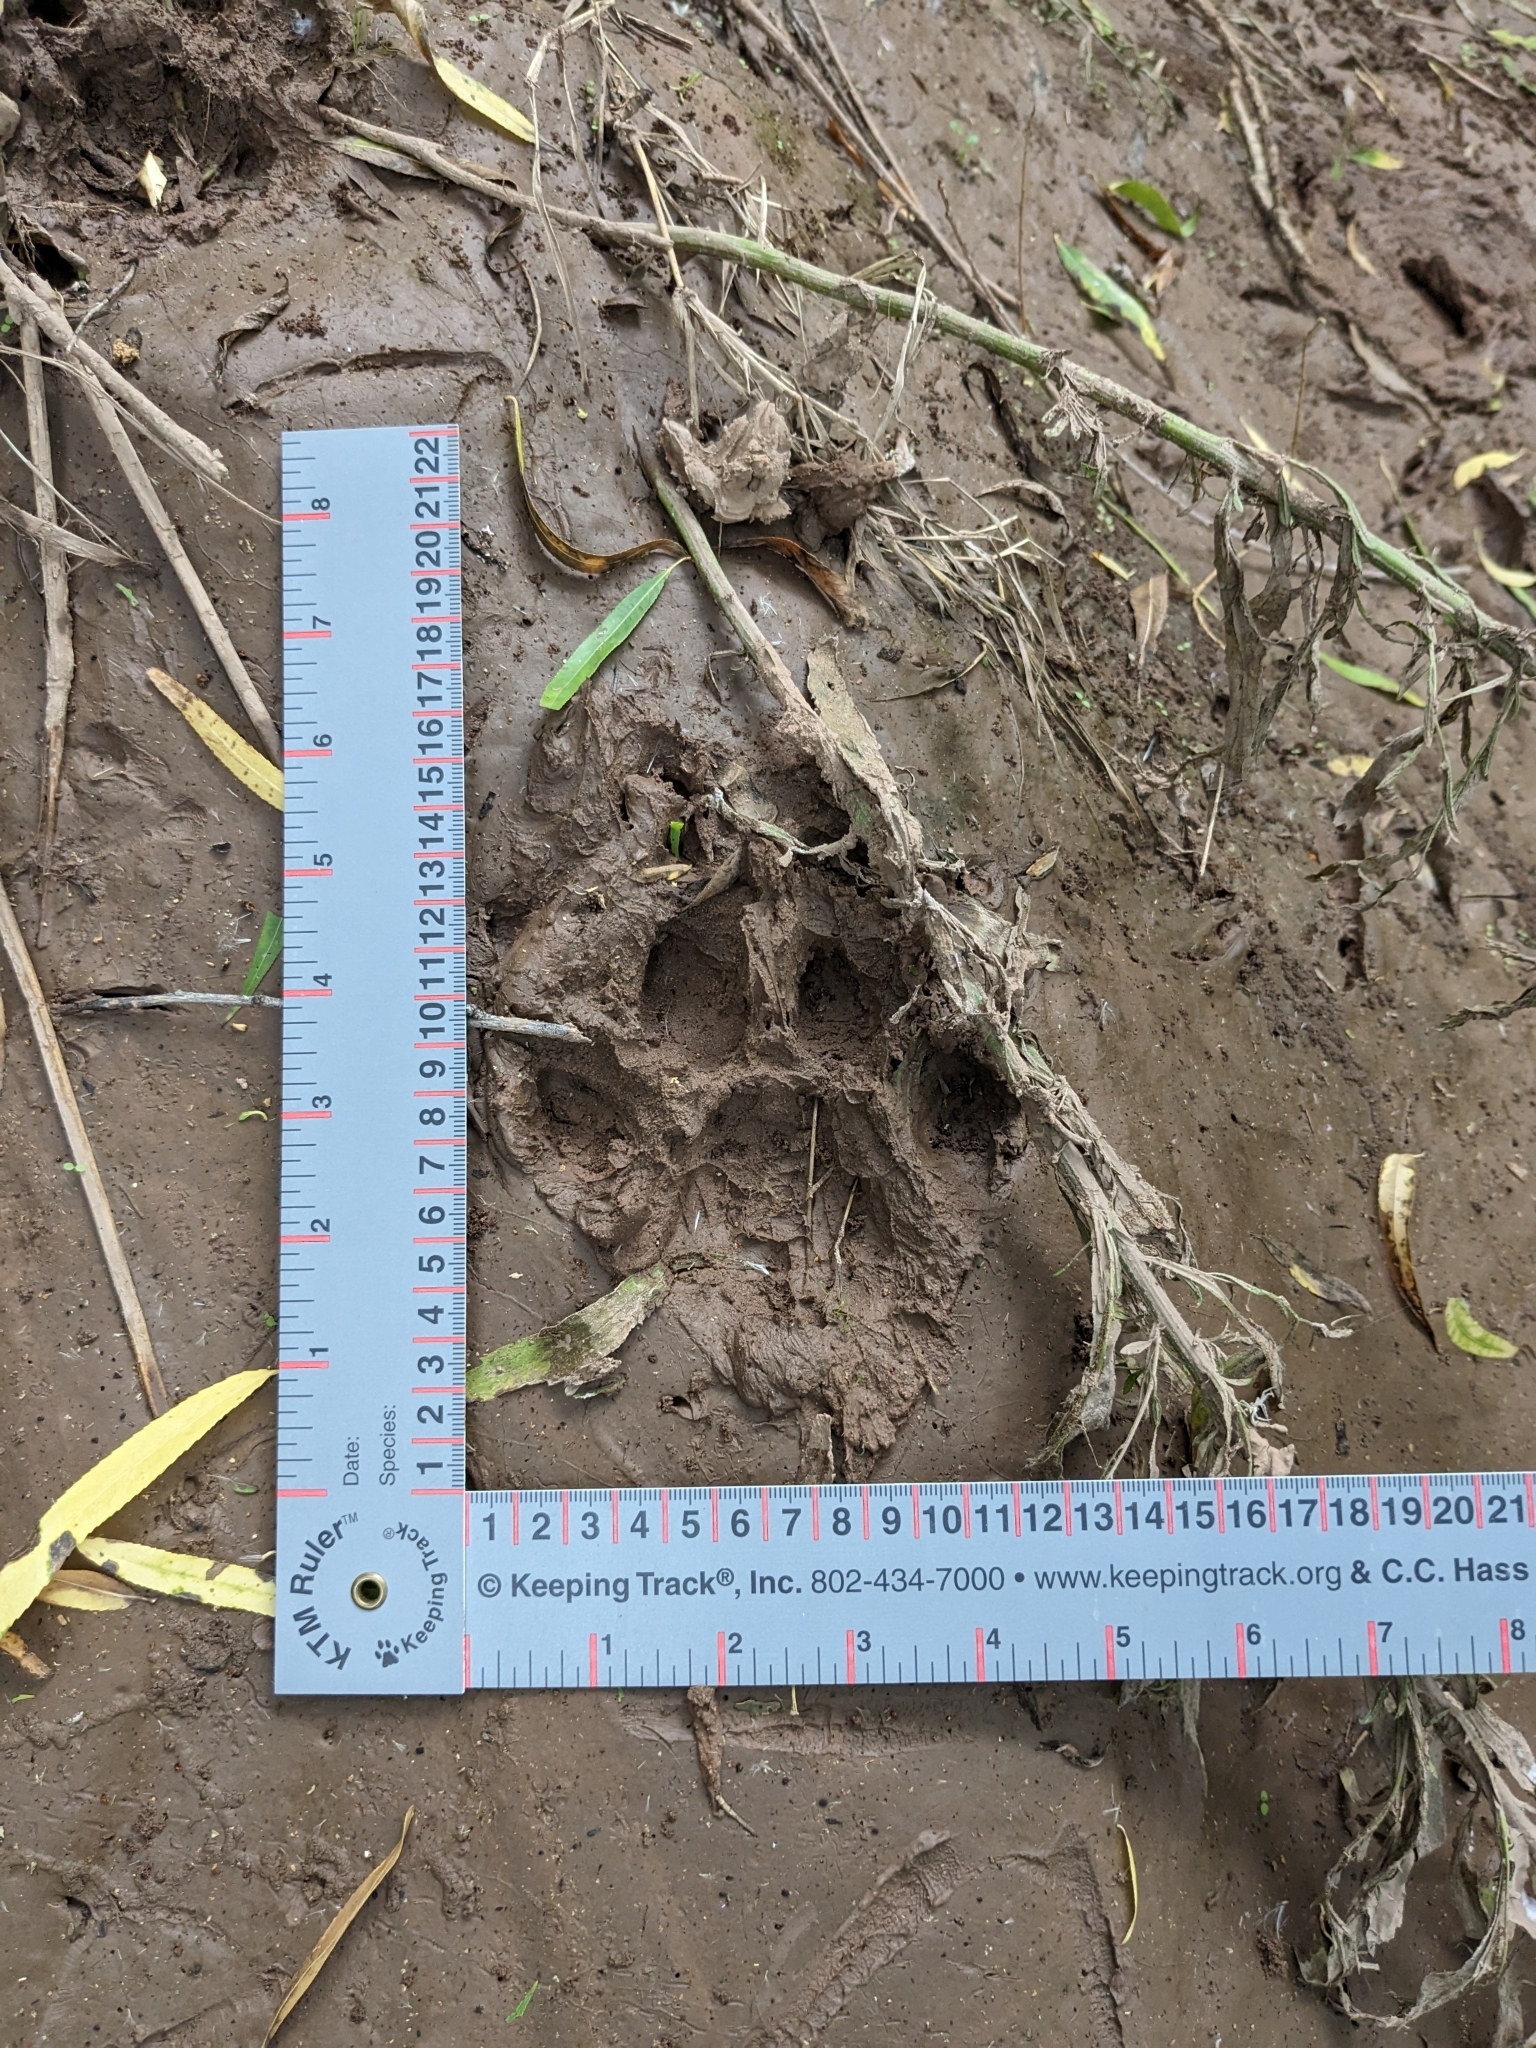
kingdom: Animalia
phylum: Chordata
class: Mammalia
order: Carnivora
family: Felidae
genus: Puma
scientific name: Puma concolor
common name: Puma
